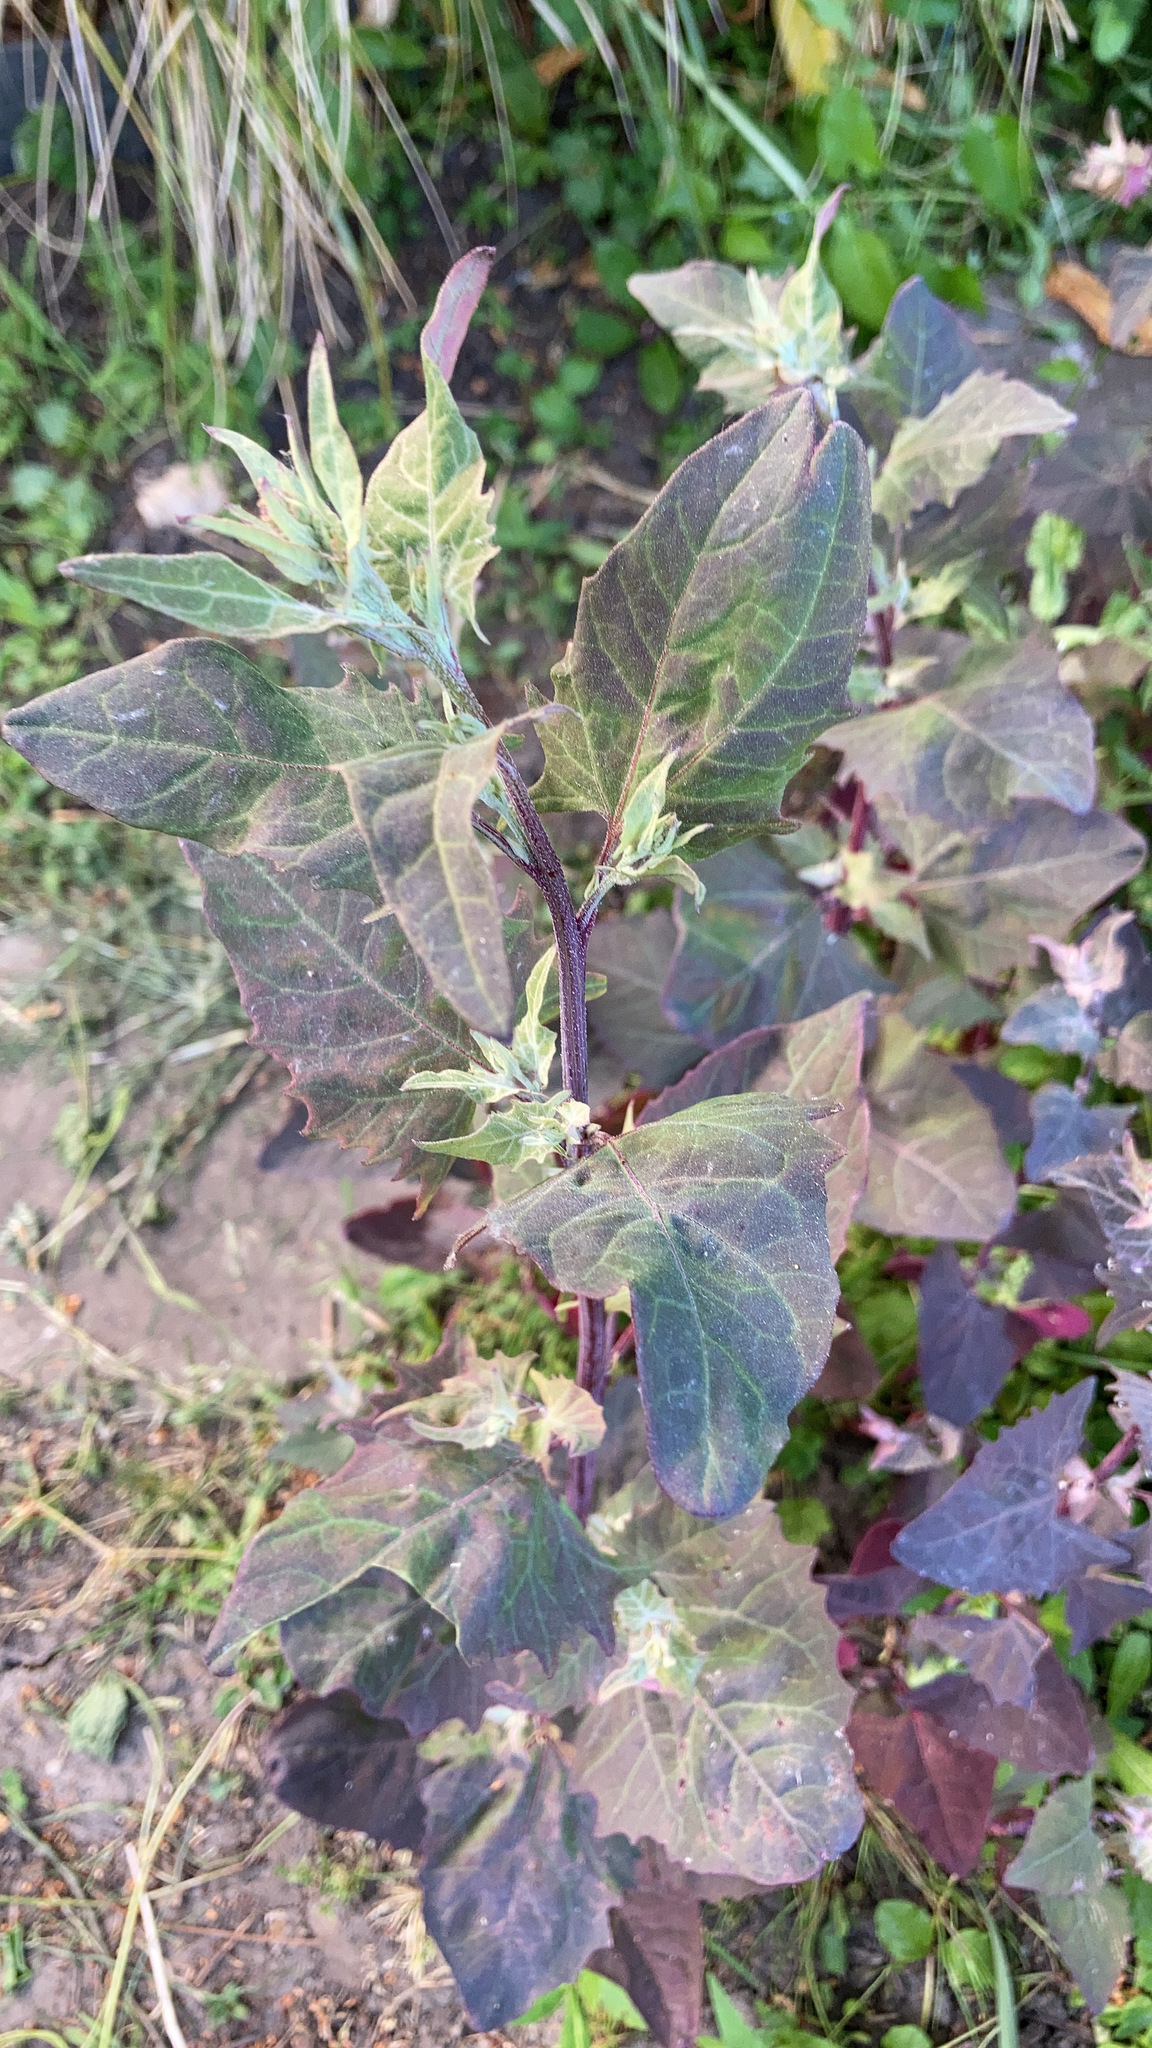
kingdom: Plantae
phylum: Tracheophyta
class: Magnoliopsida
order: Caryophyllales
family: Amaranthaceae
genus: Atriplex
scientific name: Atriplex hortensis
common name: Garden orache
